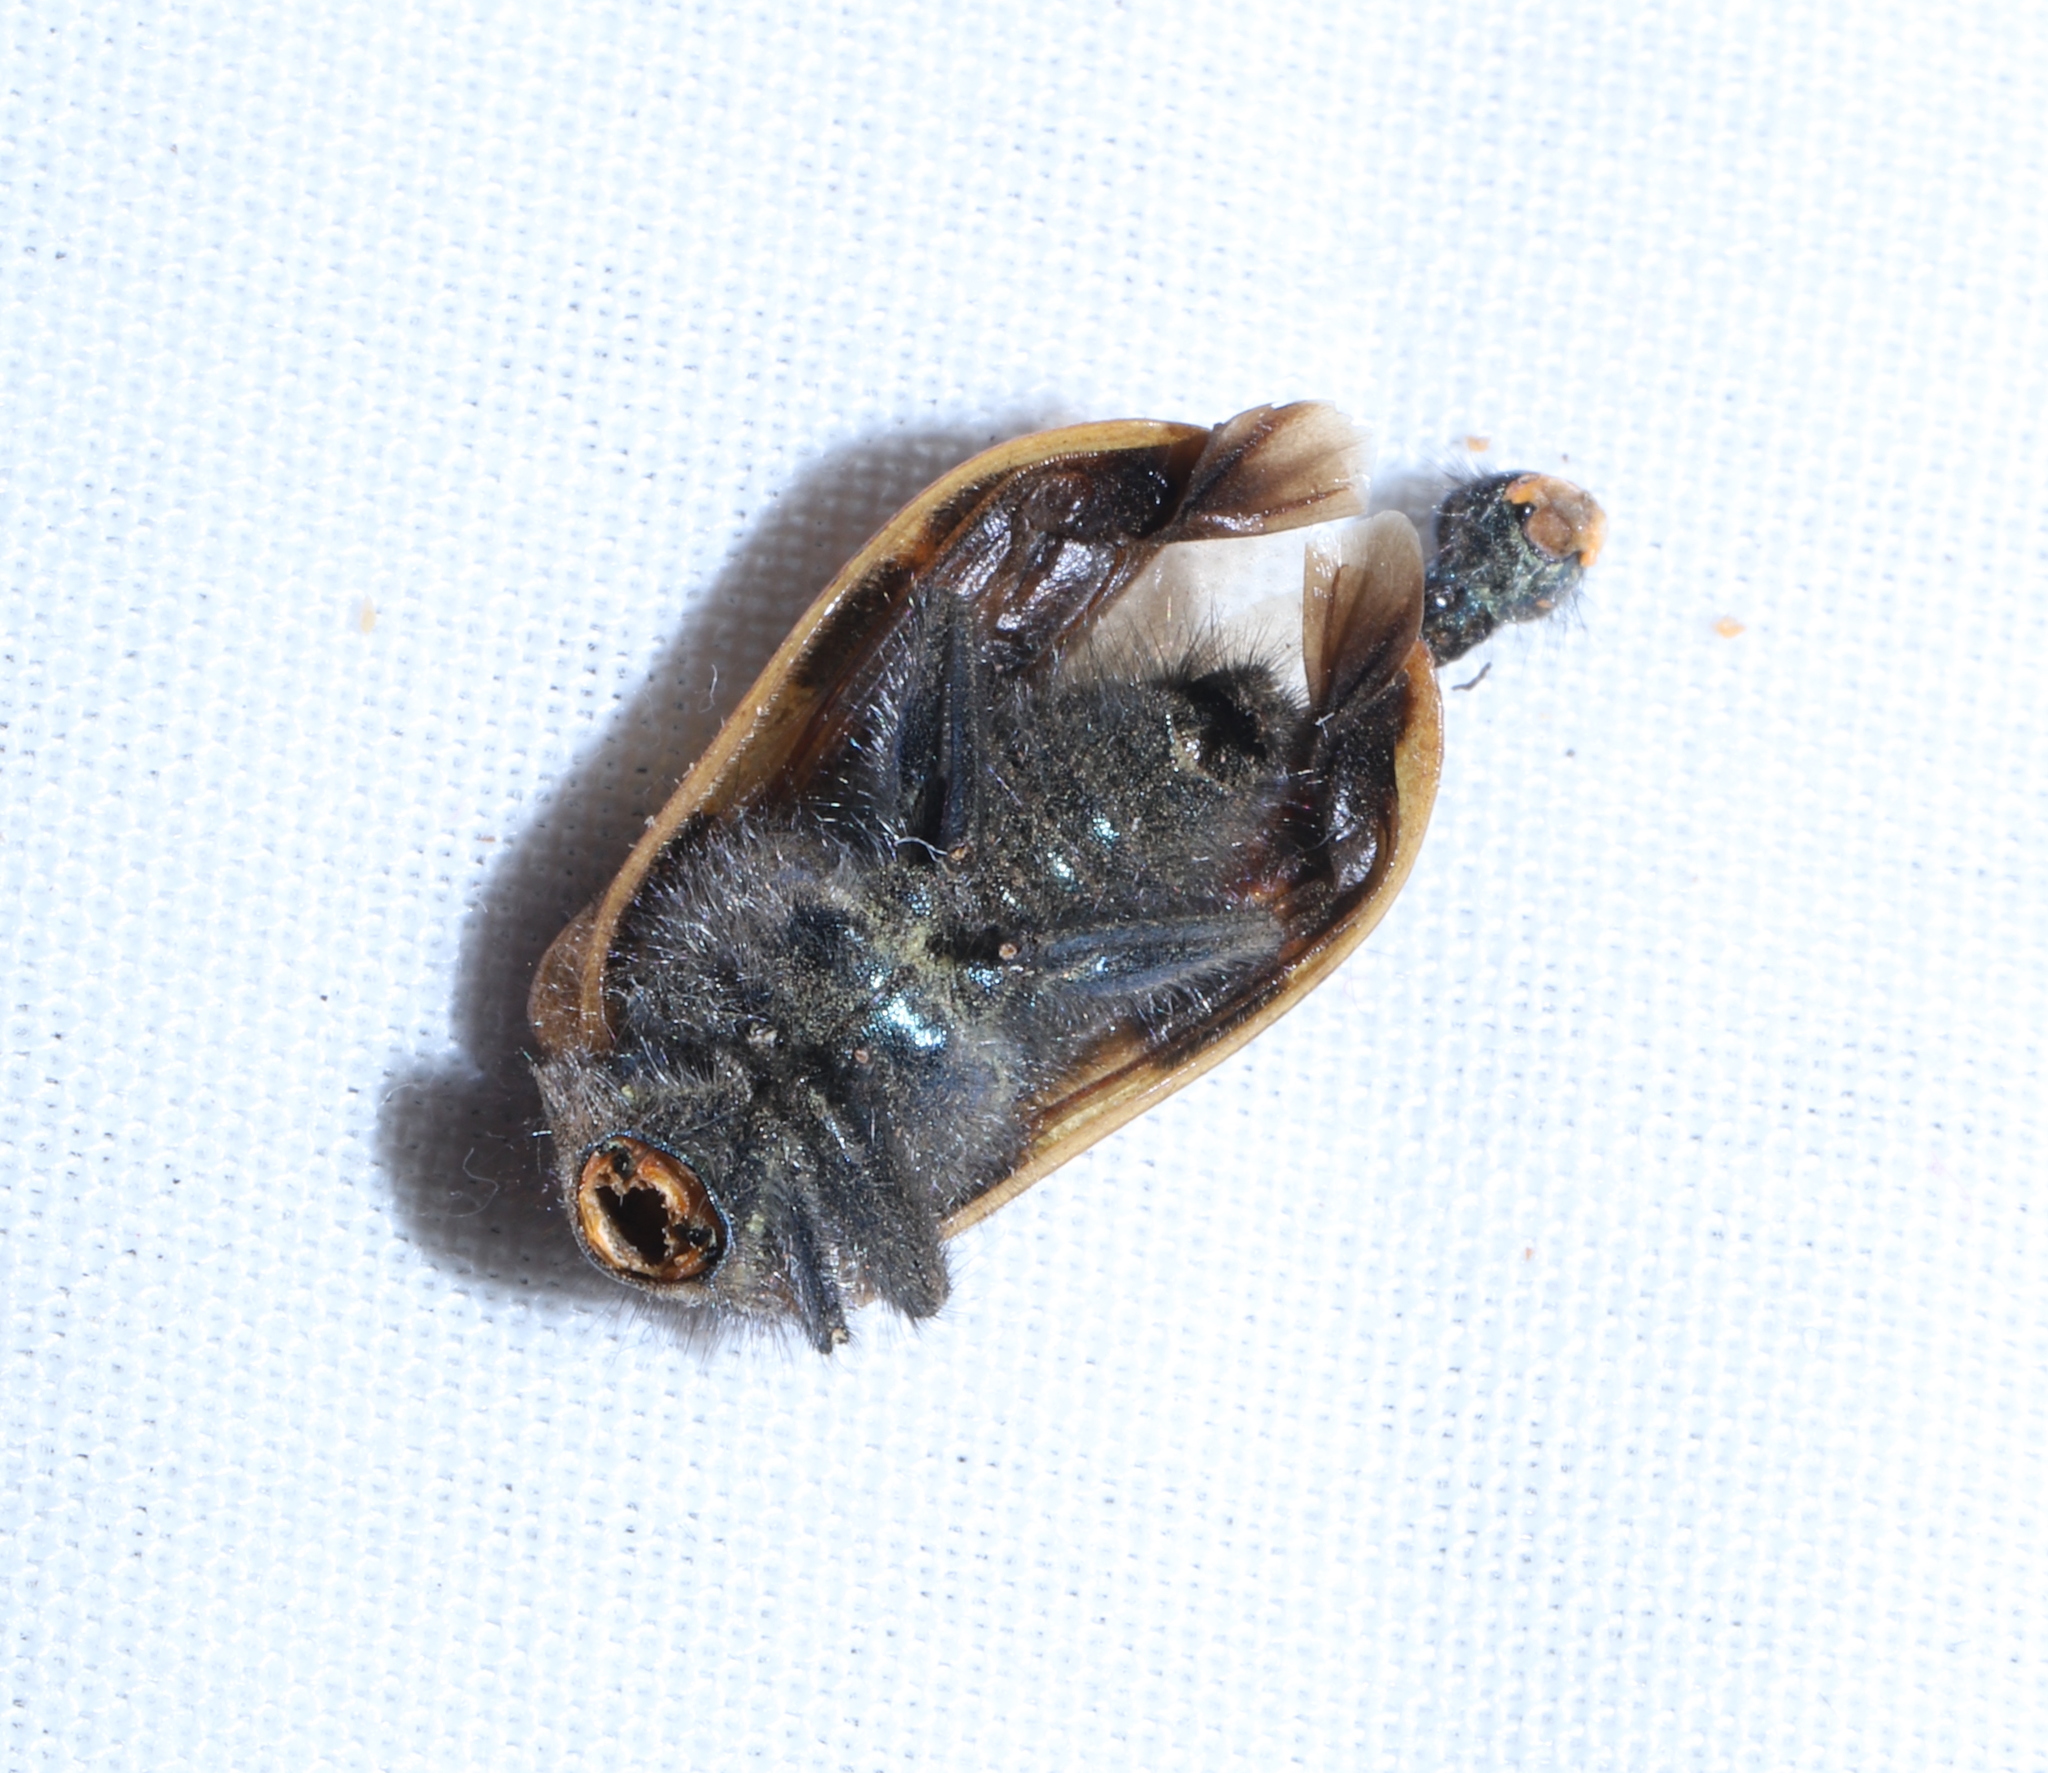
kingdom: Animalia
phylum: Arthropoda
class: Insecta
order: Coleoptera
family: Melyridae
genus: Astylus
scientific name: Astylus
